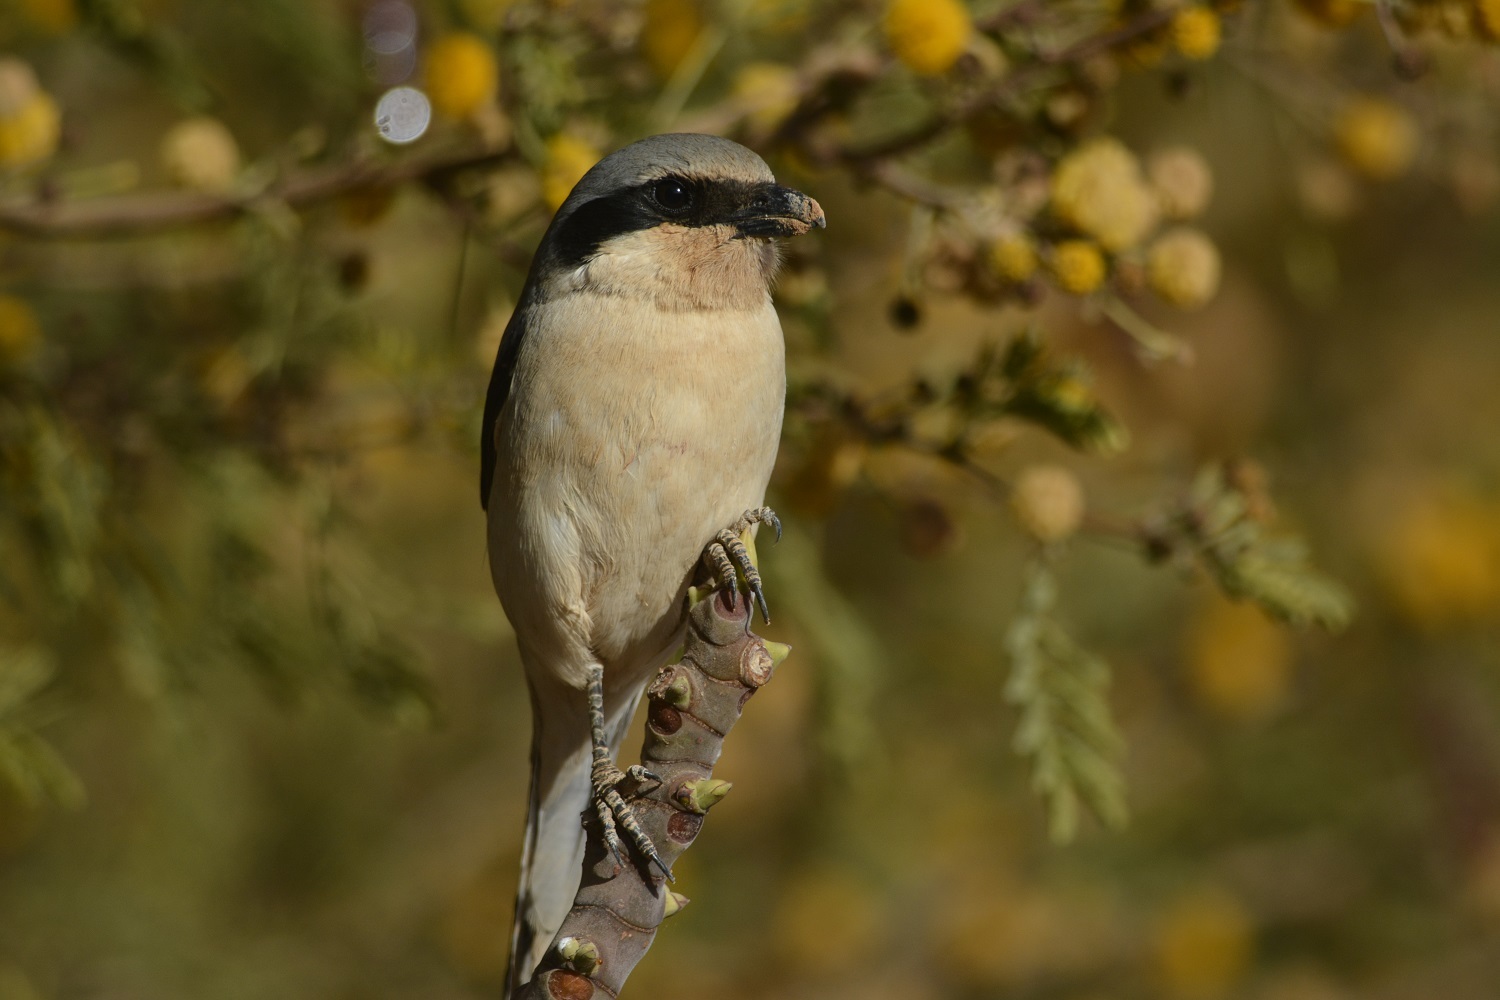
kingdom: Animalia
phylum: Chordata
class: Aves
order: Passeriformes
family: Laniidae
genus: Lanius
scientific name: Lanius excubitor
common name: Great grey shrike
